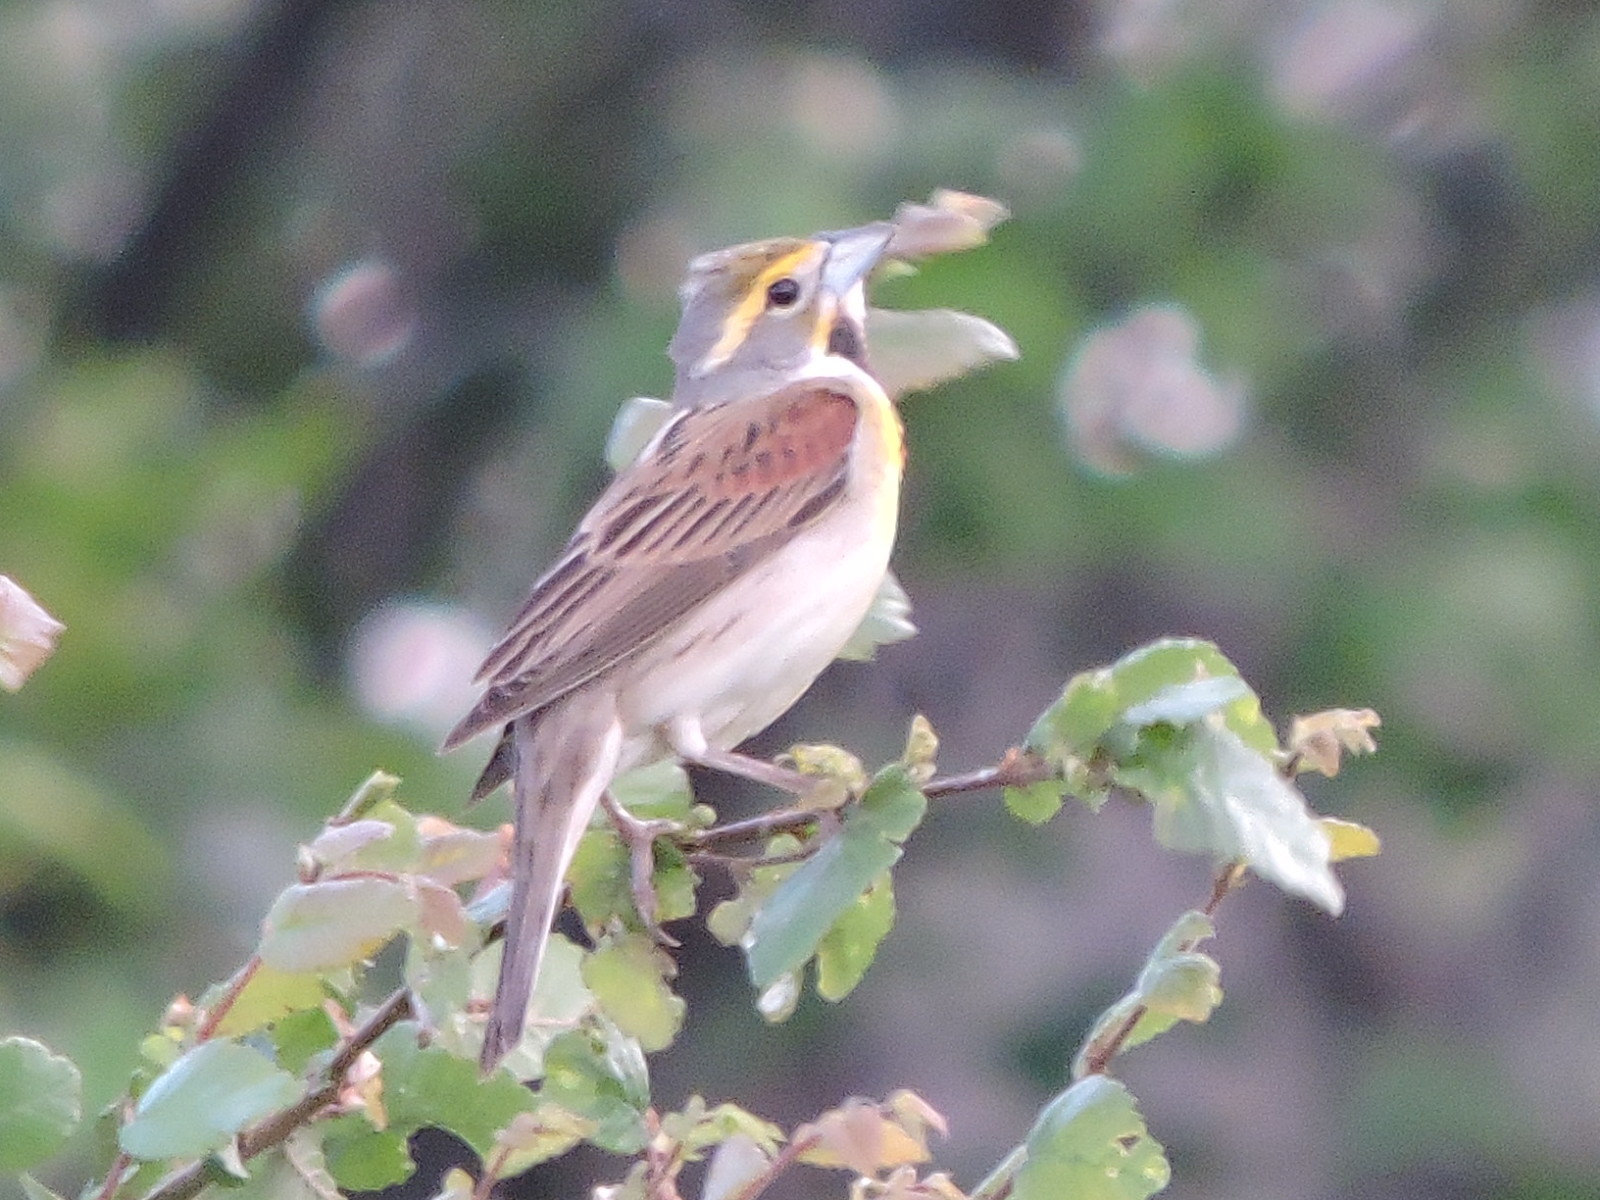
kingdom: Animalia
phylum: Chordata
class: Aves
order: Passeriformes
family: Cardinalidae
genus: Spiza
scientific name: Spiza americana
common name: Dickcissel
